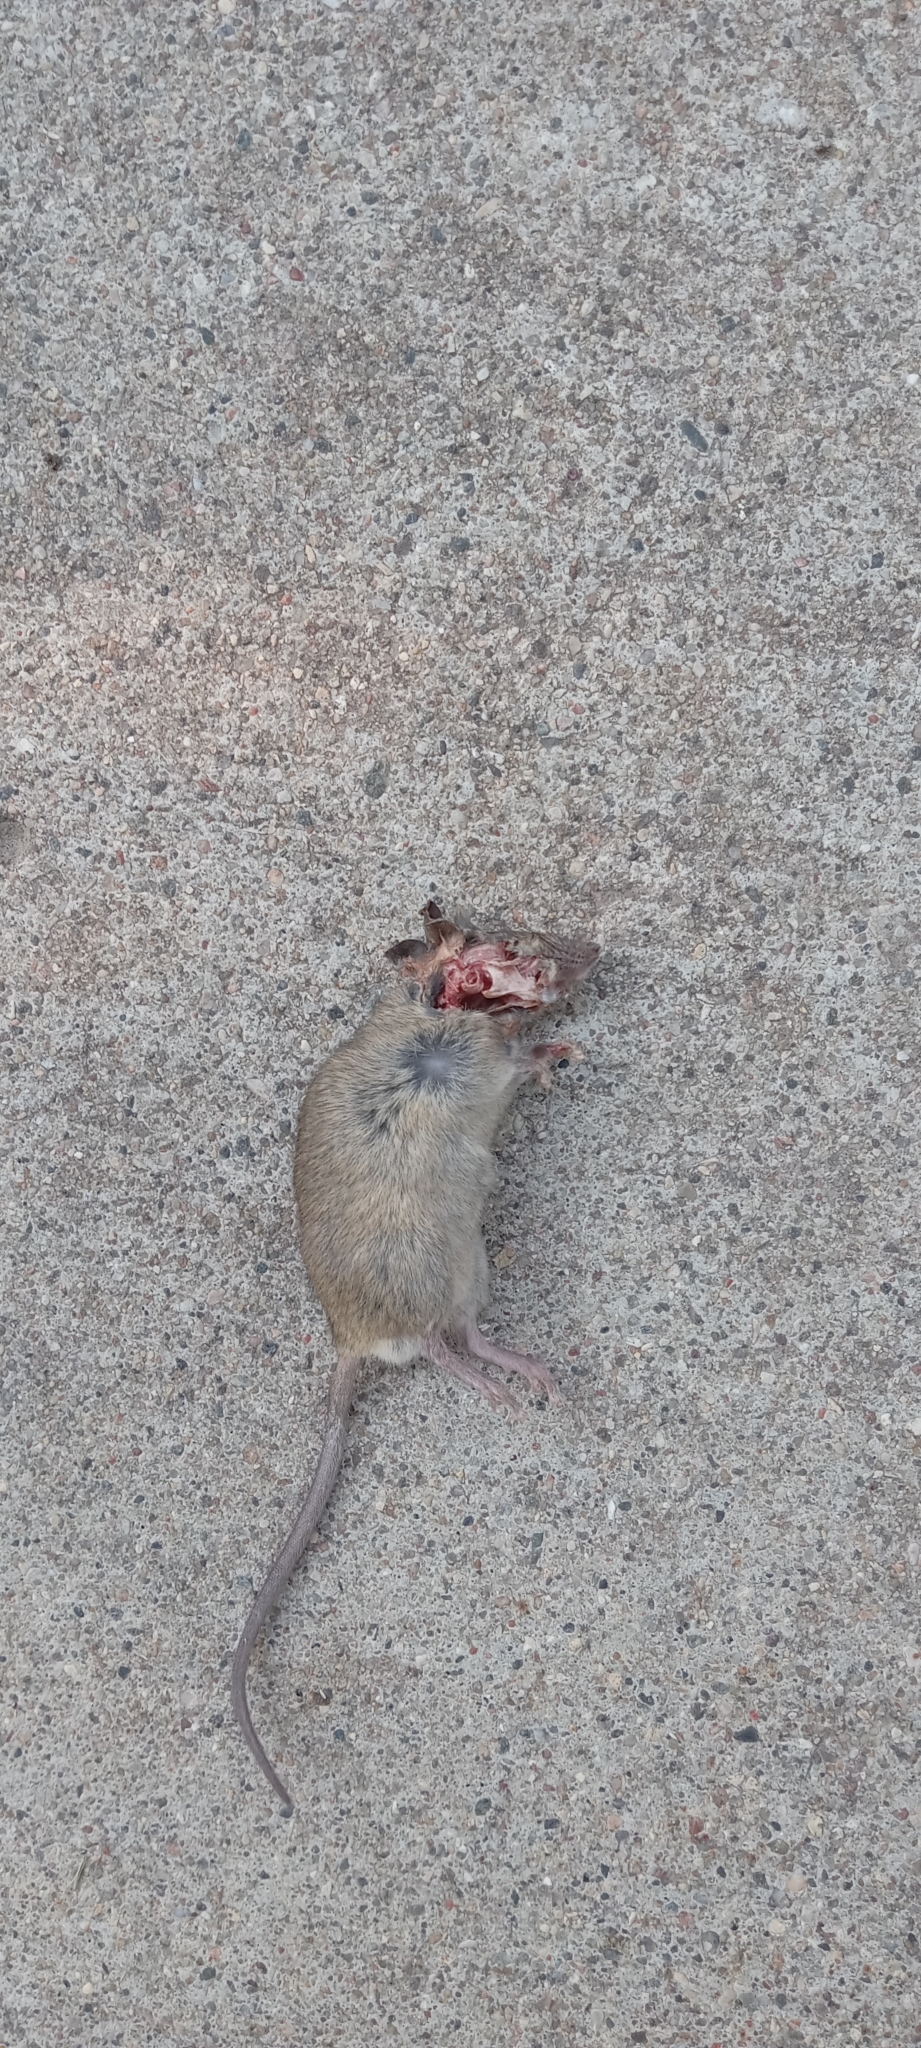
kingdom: Animalia
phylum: Chordata
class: Mammalia
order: Rodentia
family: Muridae
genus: Mus
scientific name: Mus musculus
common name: House mouse
